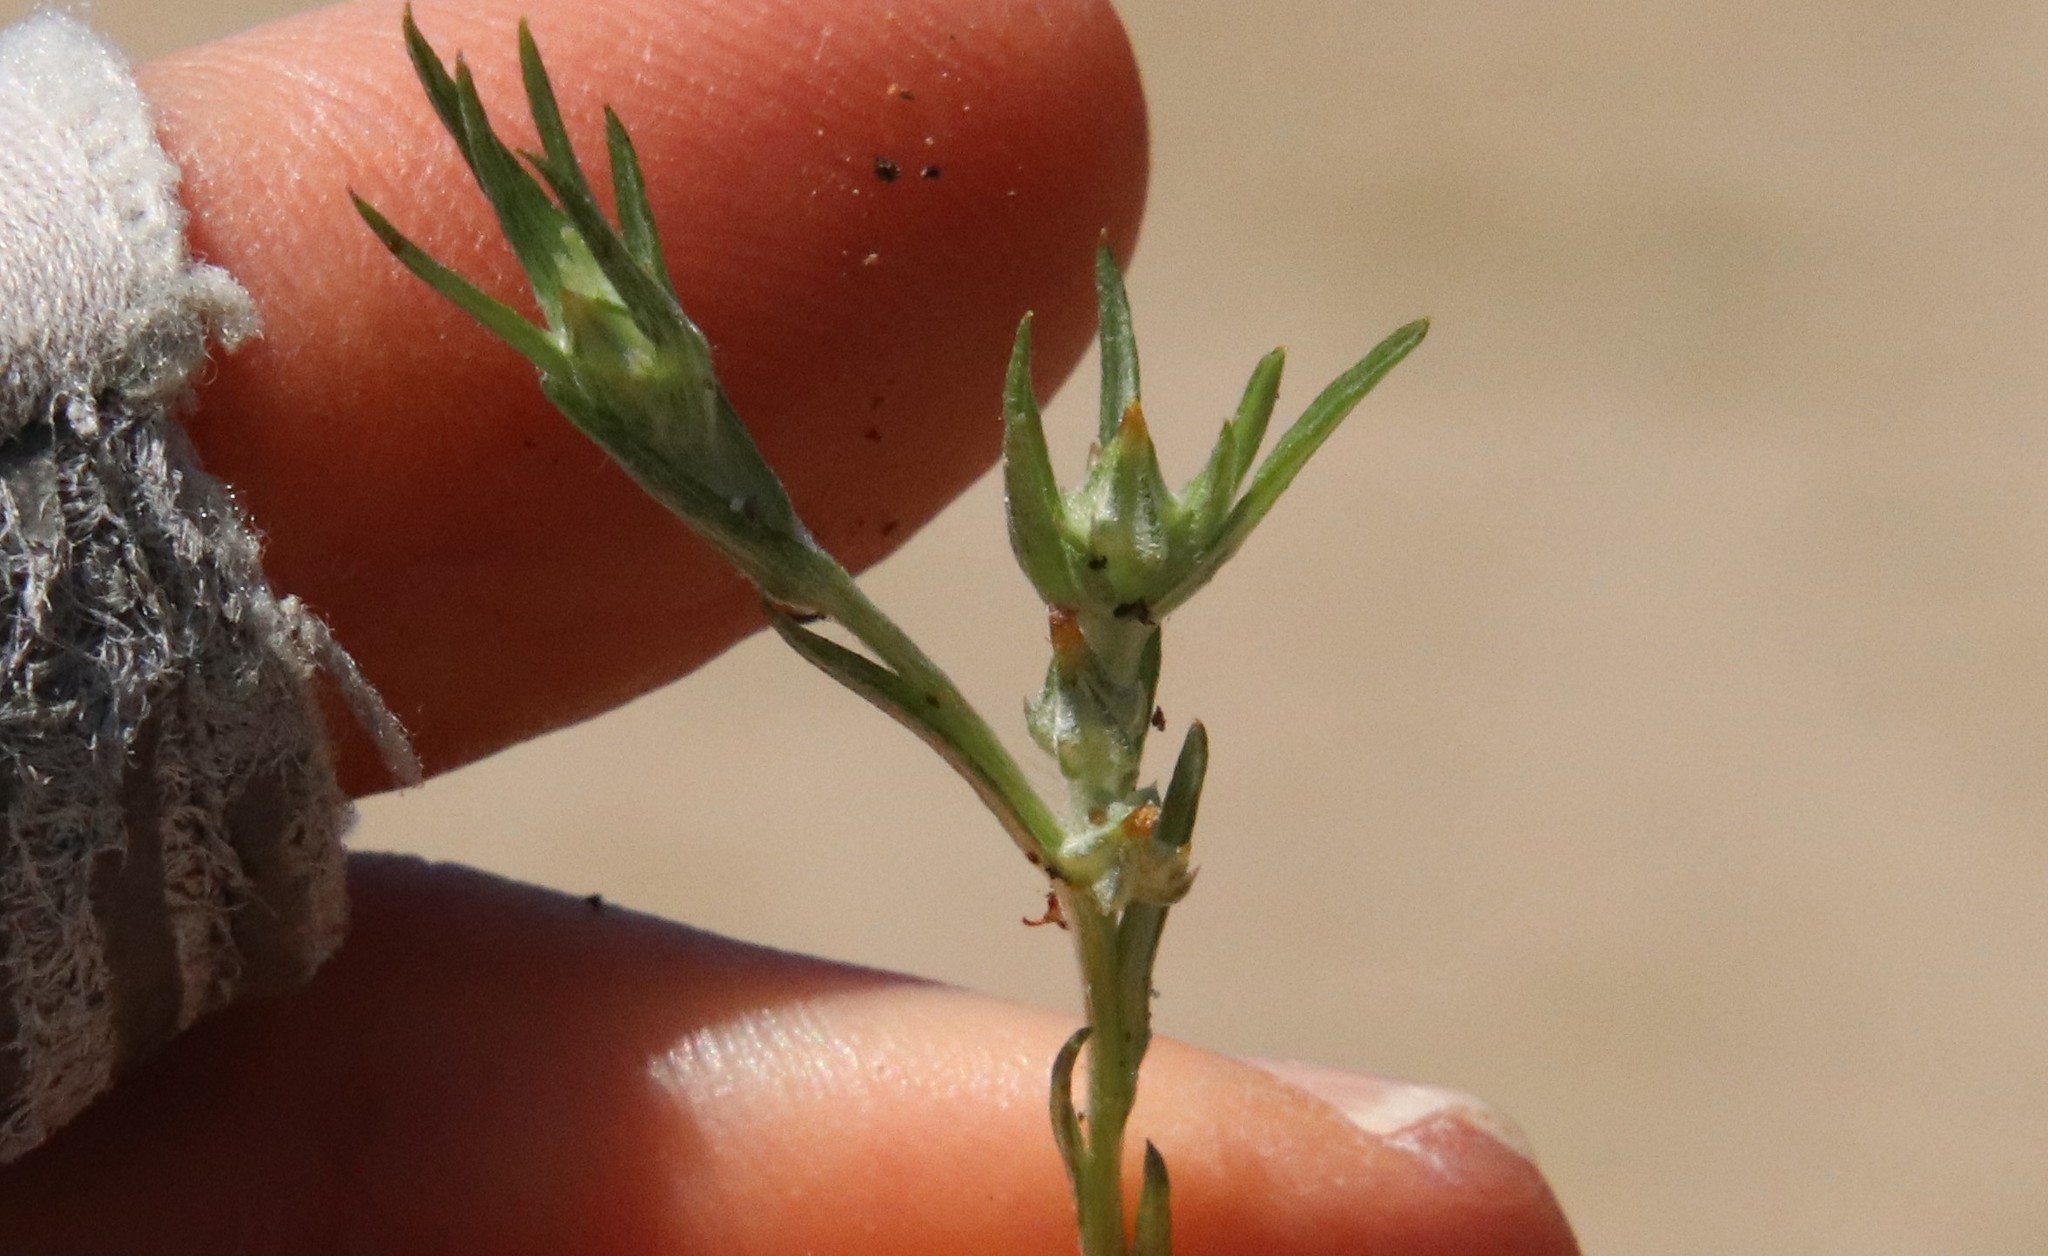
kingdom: Plantae
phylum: Tracheophyta
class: Magnoliopsida
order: Asterales
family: Asteraceae
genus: Logfia
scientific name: Logfia gallica
